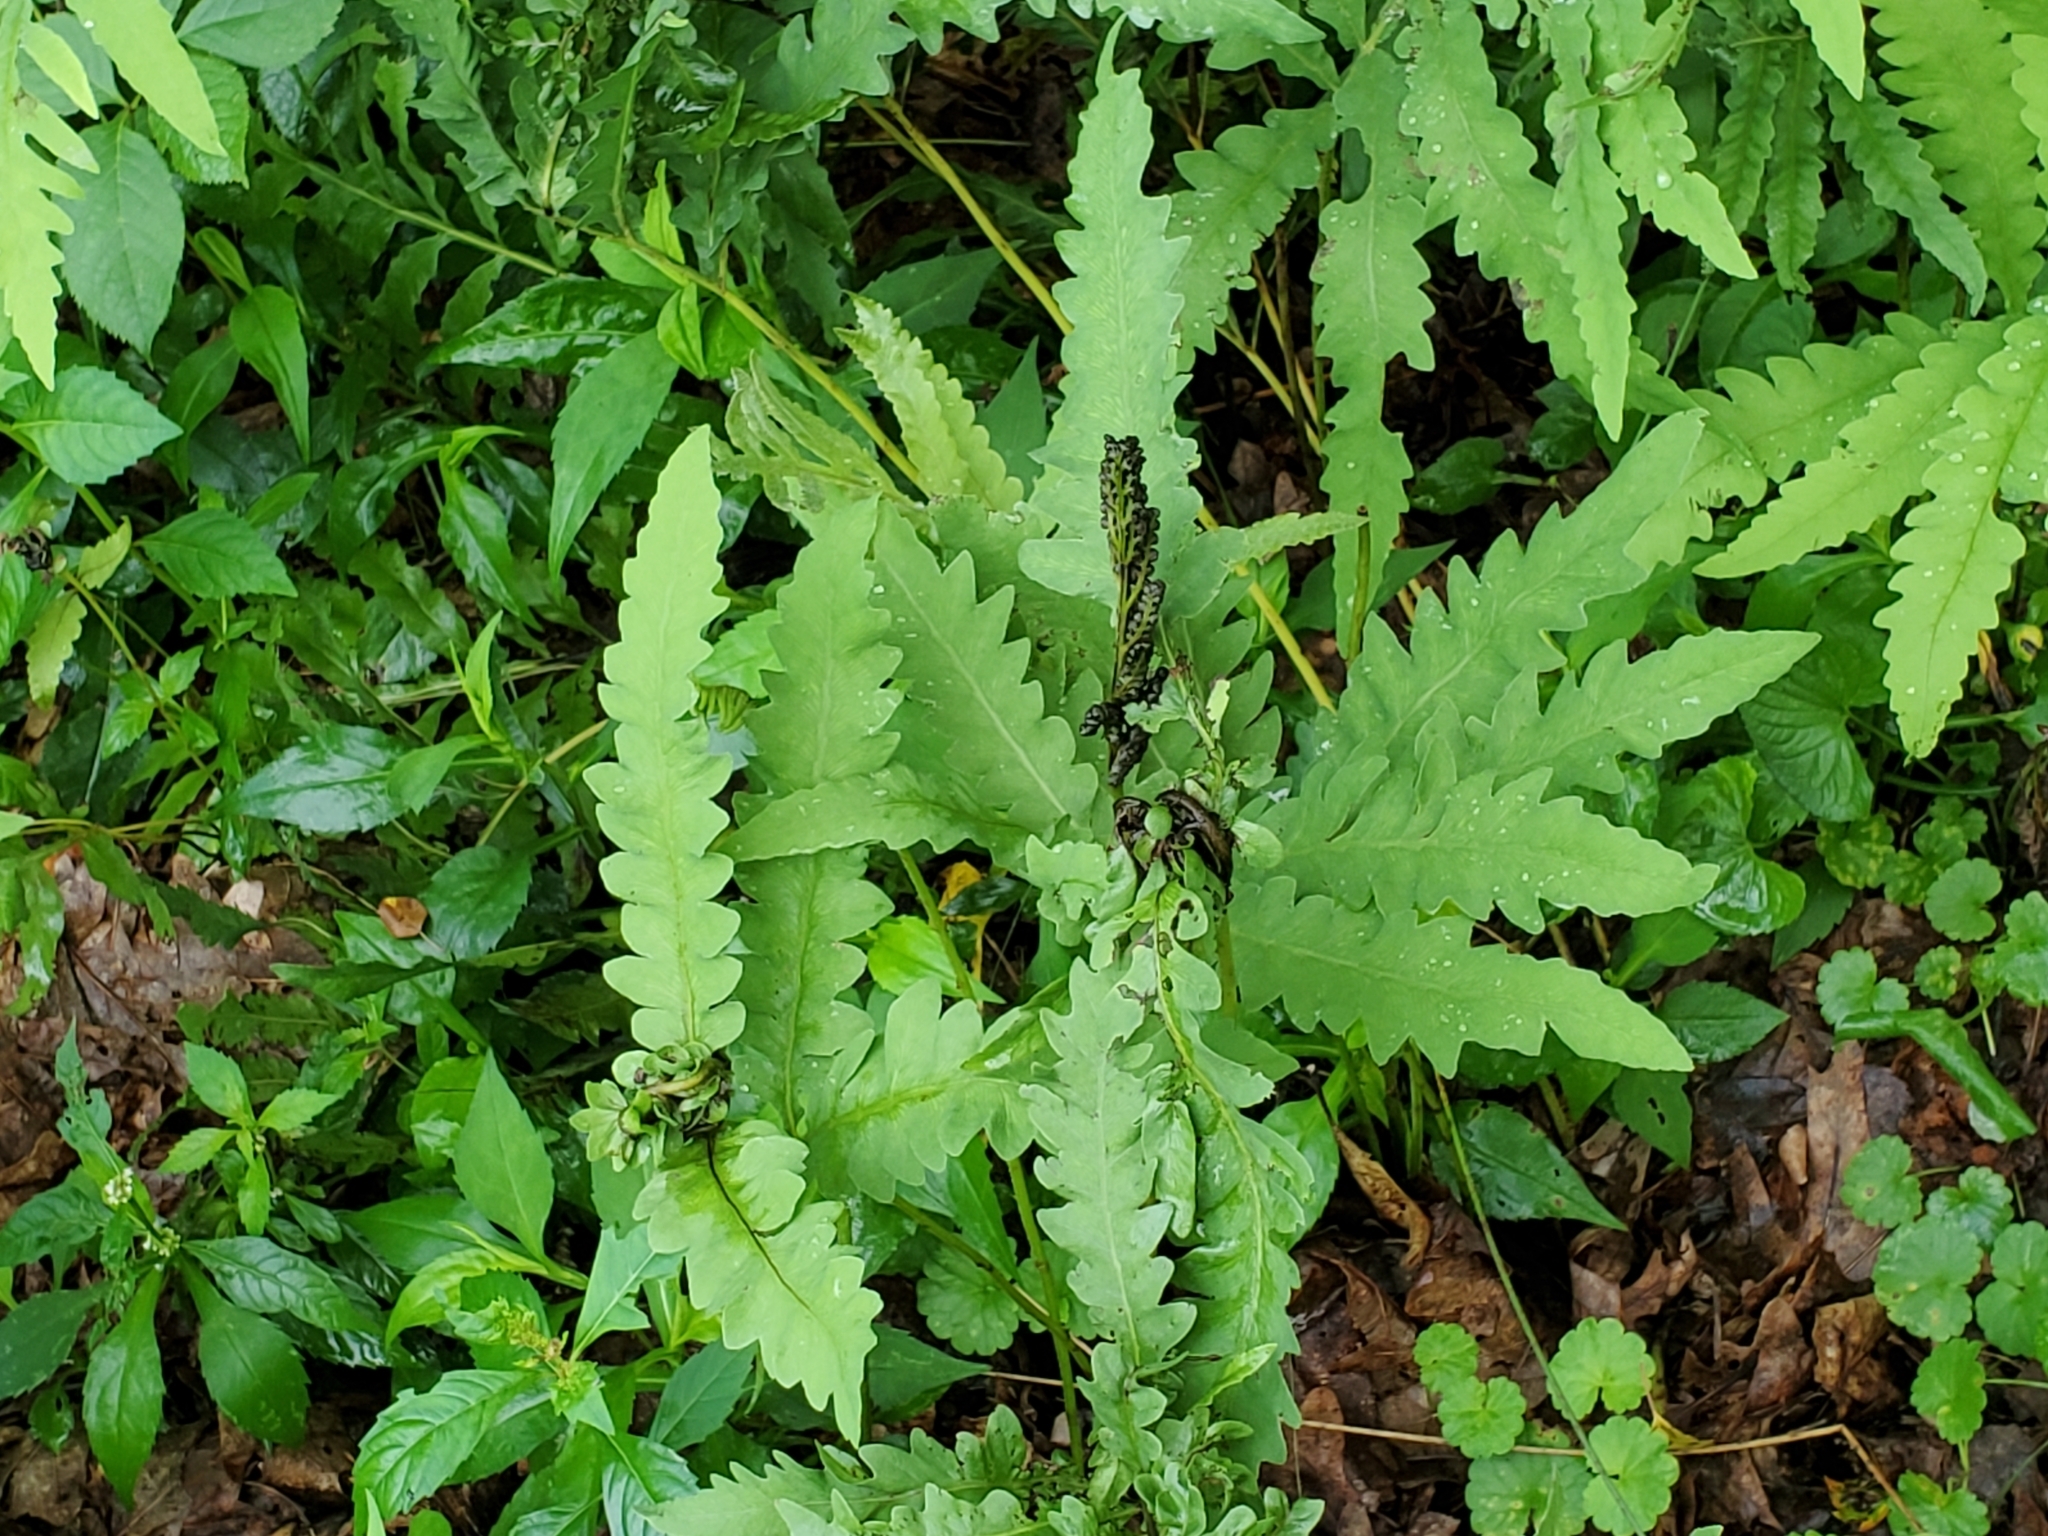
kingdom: Plantae
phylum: Tracheophyta
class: Polypodiopsida
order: Polypodiales
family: Onocleaceae
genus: Onoclea
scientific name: Onoclea sensibilis
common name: Sensitive fern
